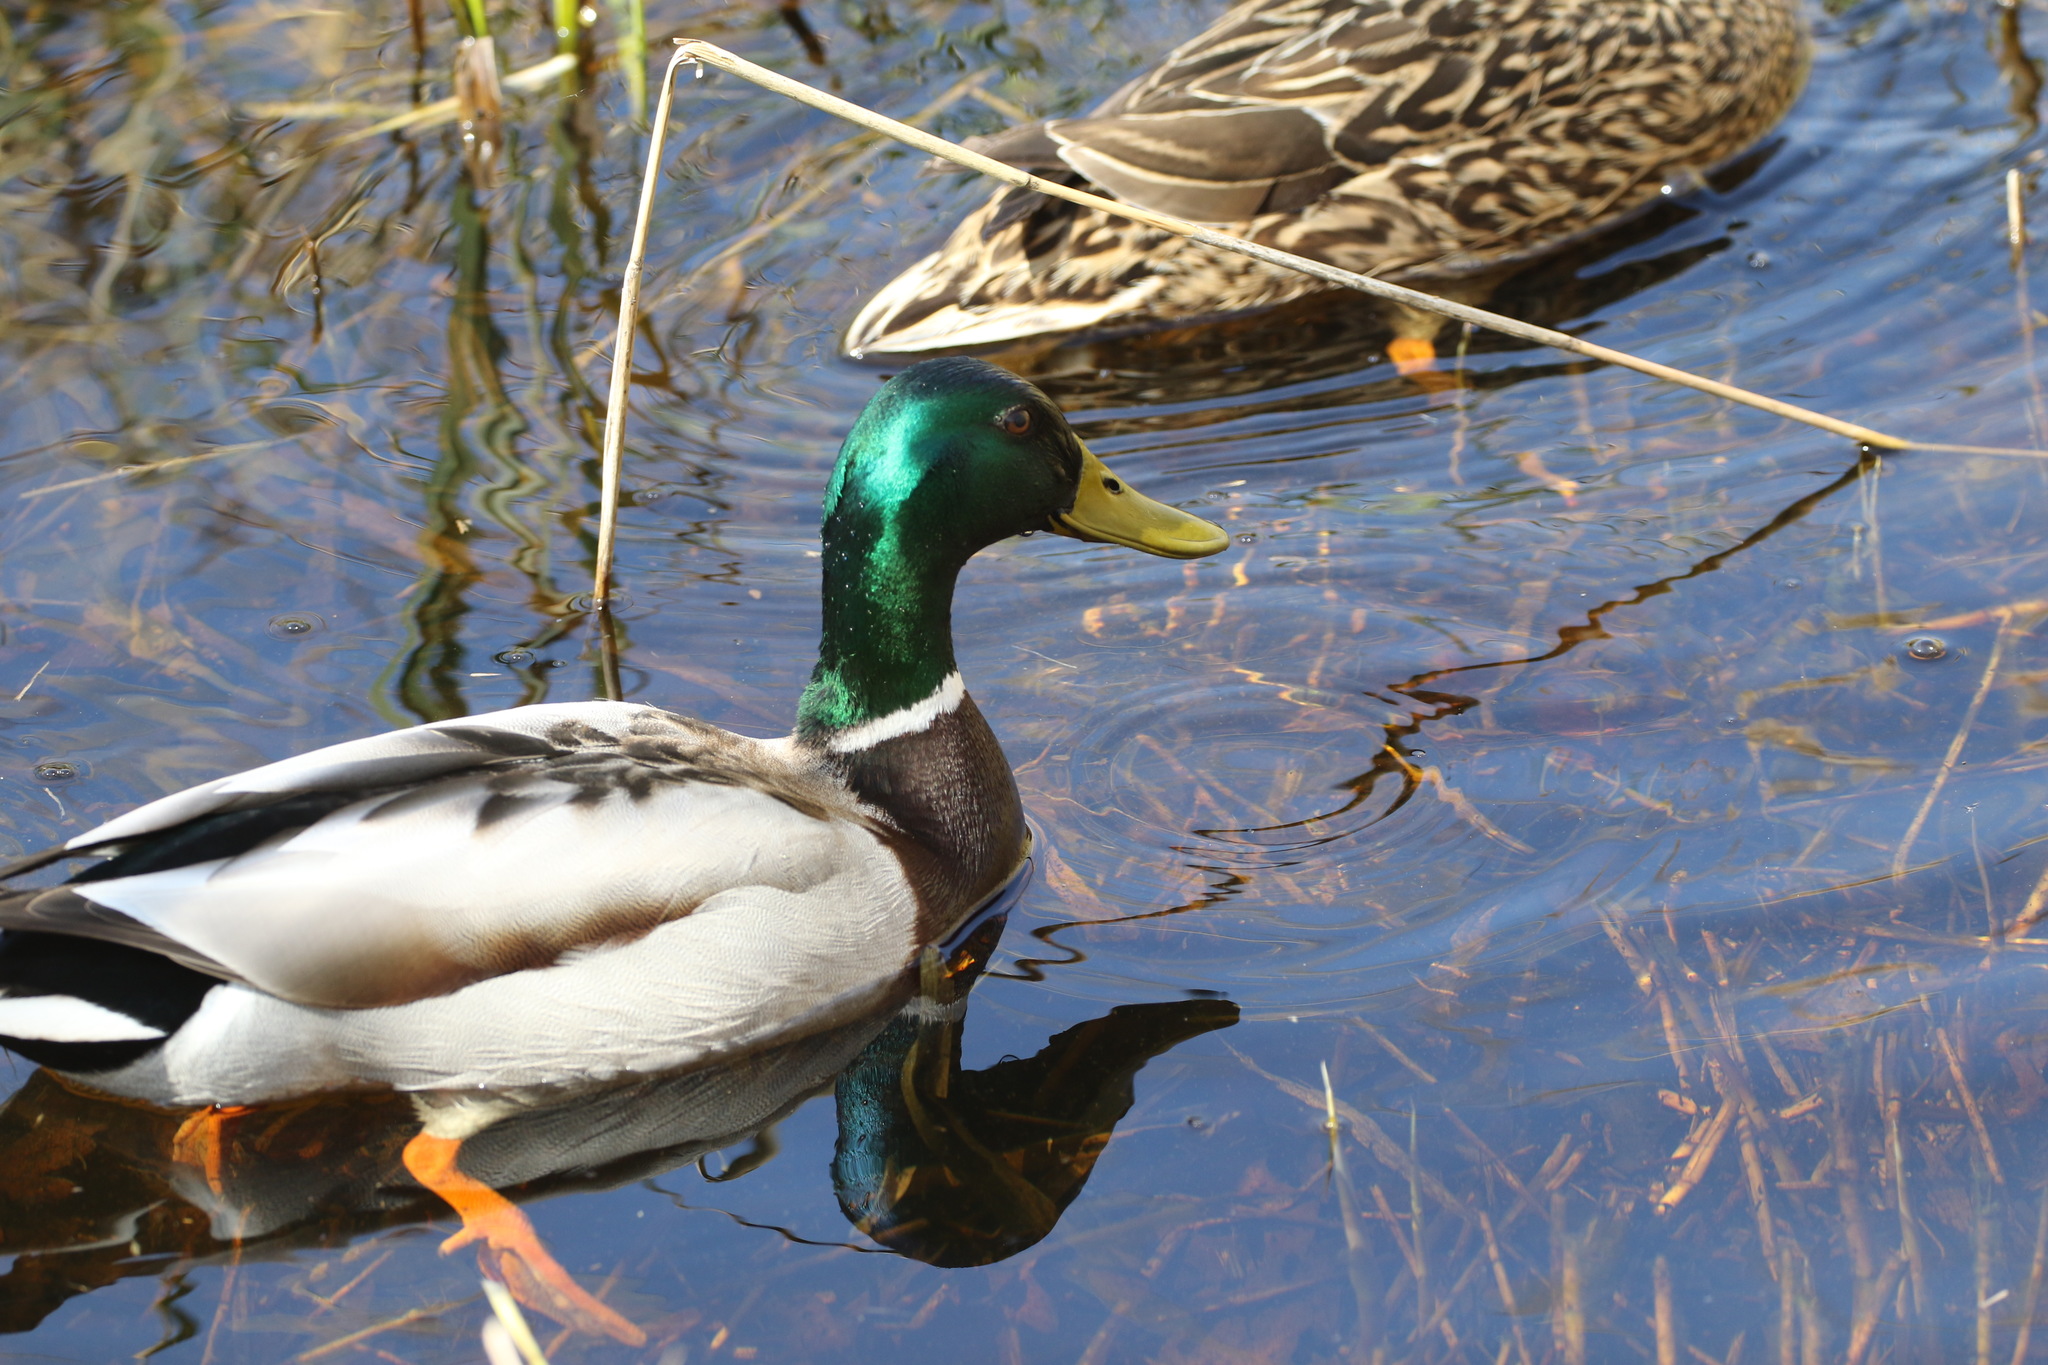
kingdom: Animalia
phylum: Chordata
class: Aves
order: Anseriformes
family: Anatidae
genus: Anas
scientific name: Anas platyrhynchos
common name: Mallard
